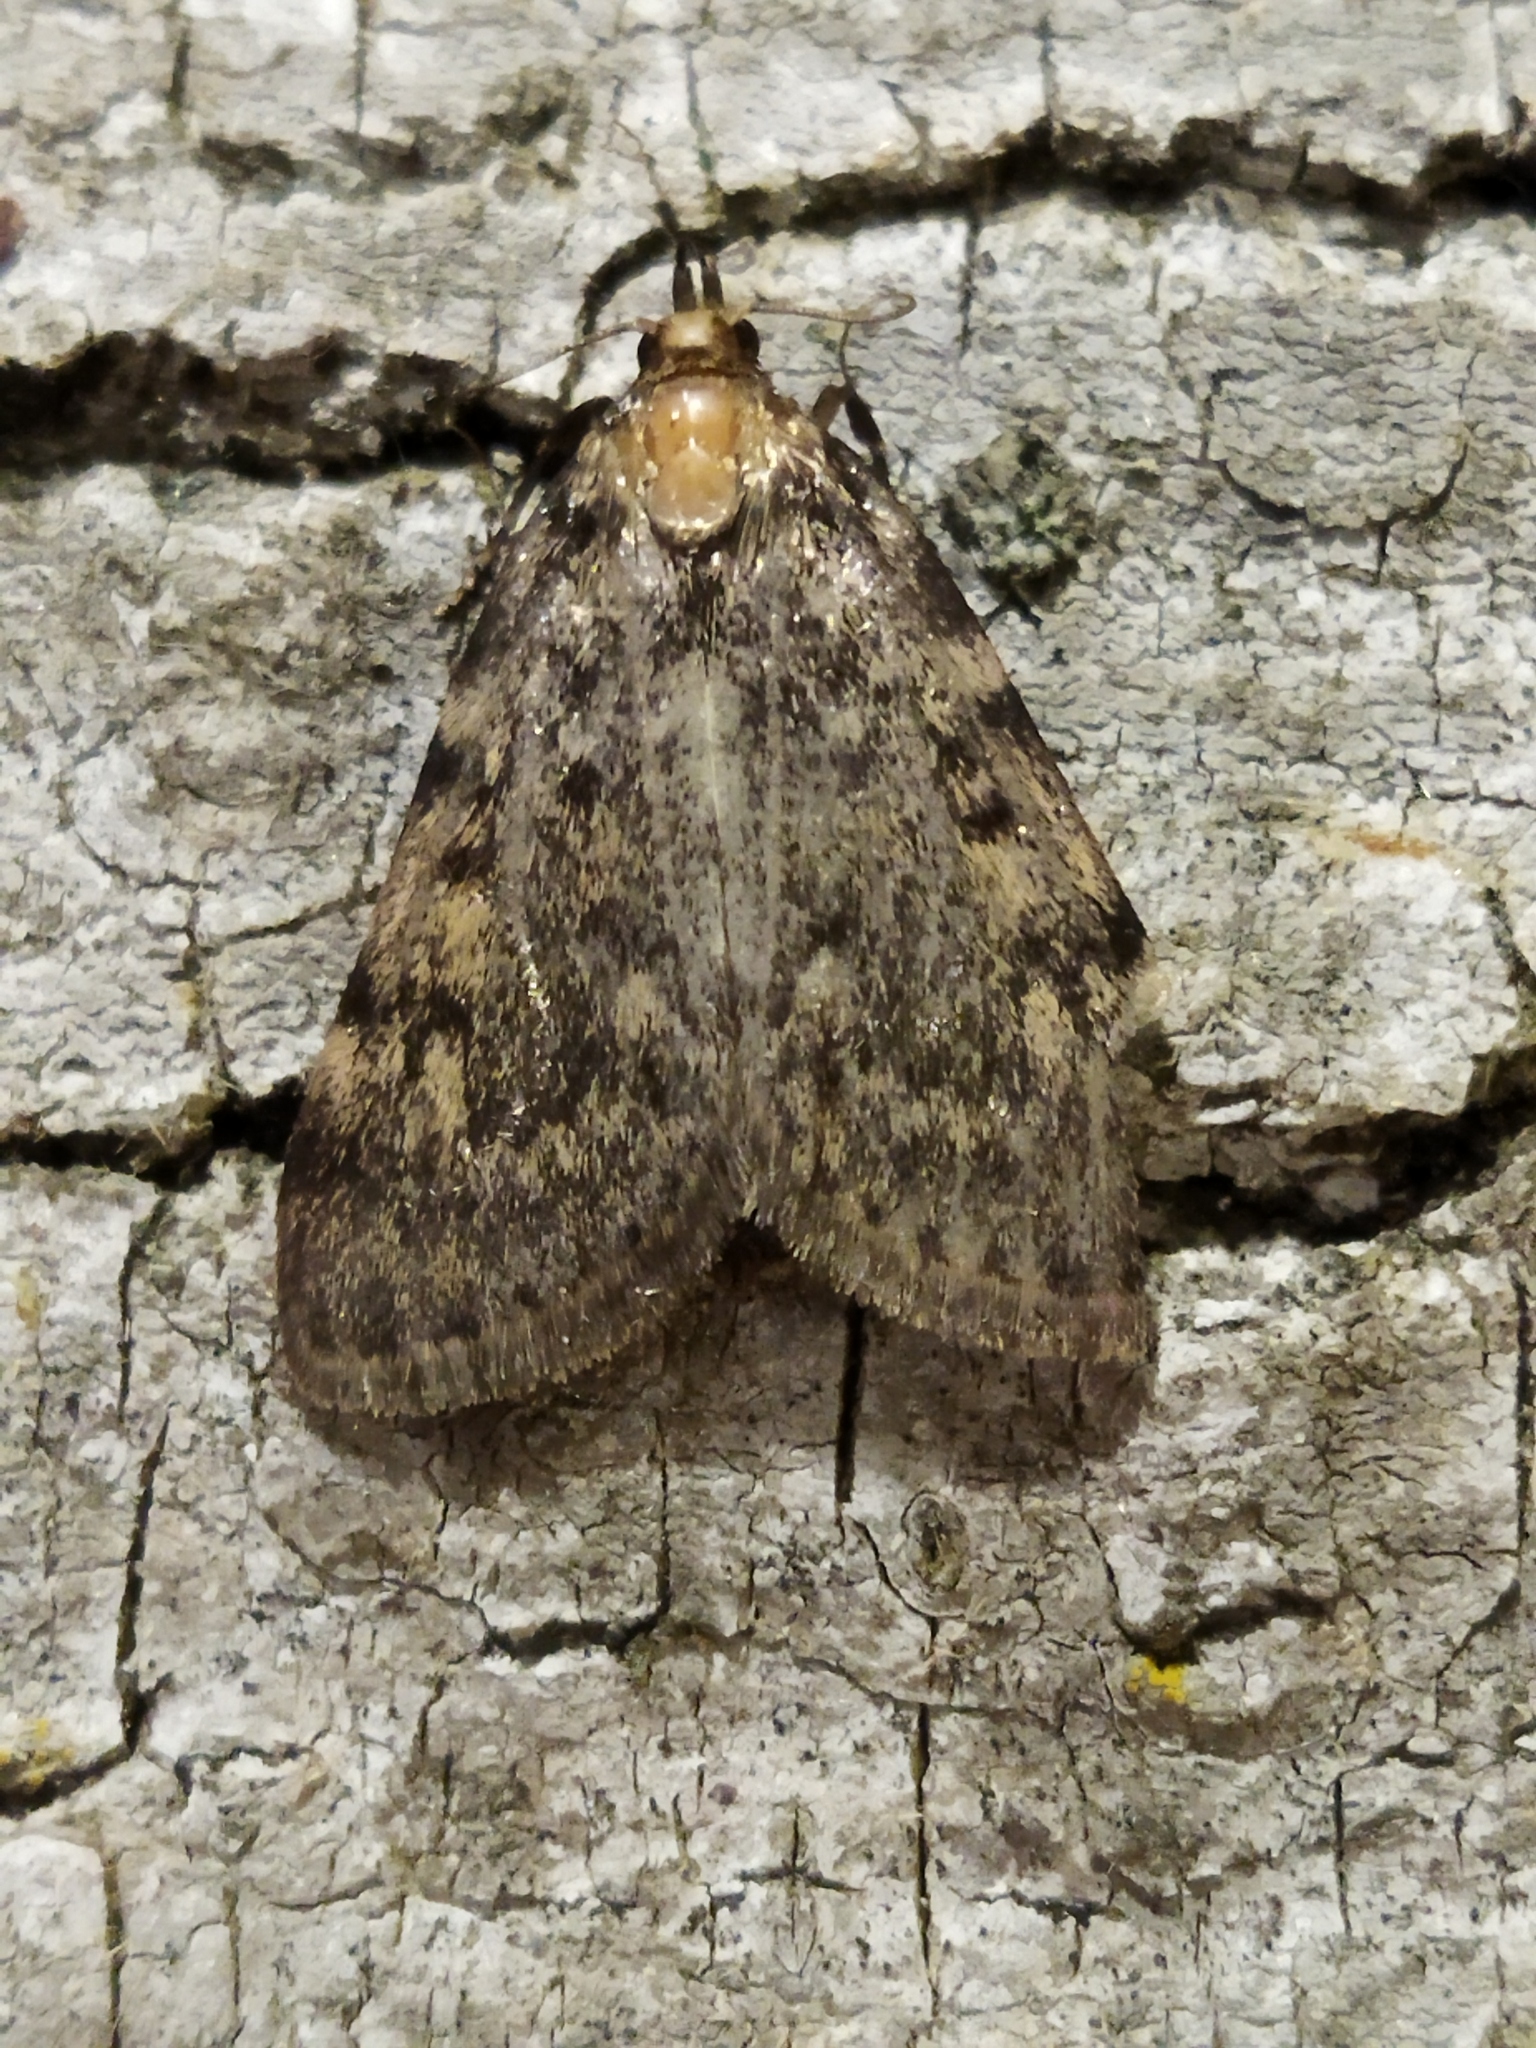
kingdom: Animalia
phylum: Arthropoda
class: Insecta
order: Lepidoptera
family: Pyralidae
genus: Aglossa
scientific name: Aglossa pinguinalis
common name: Large tabby
